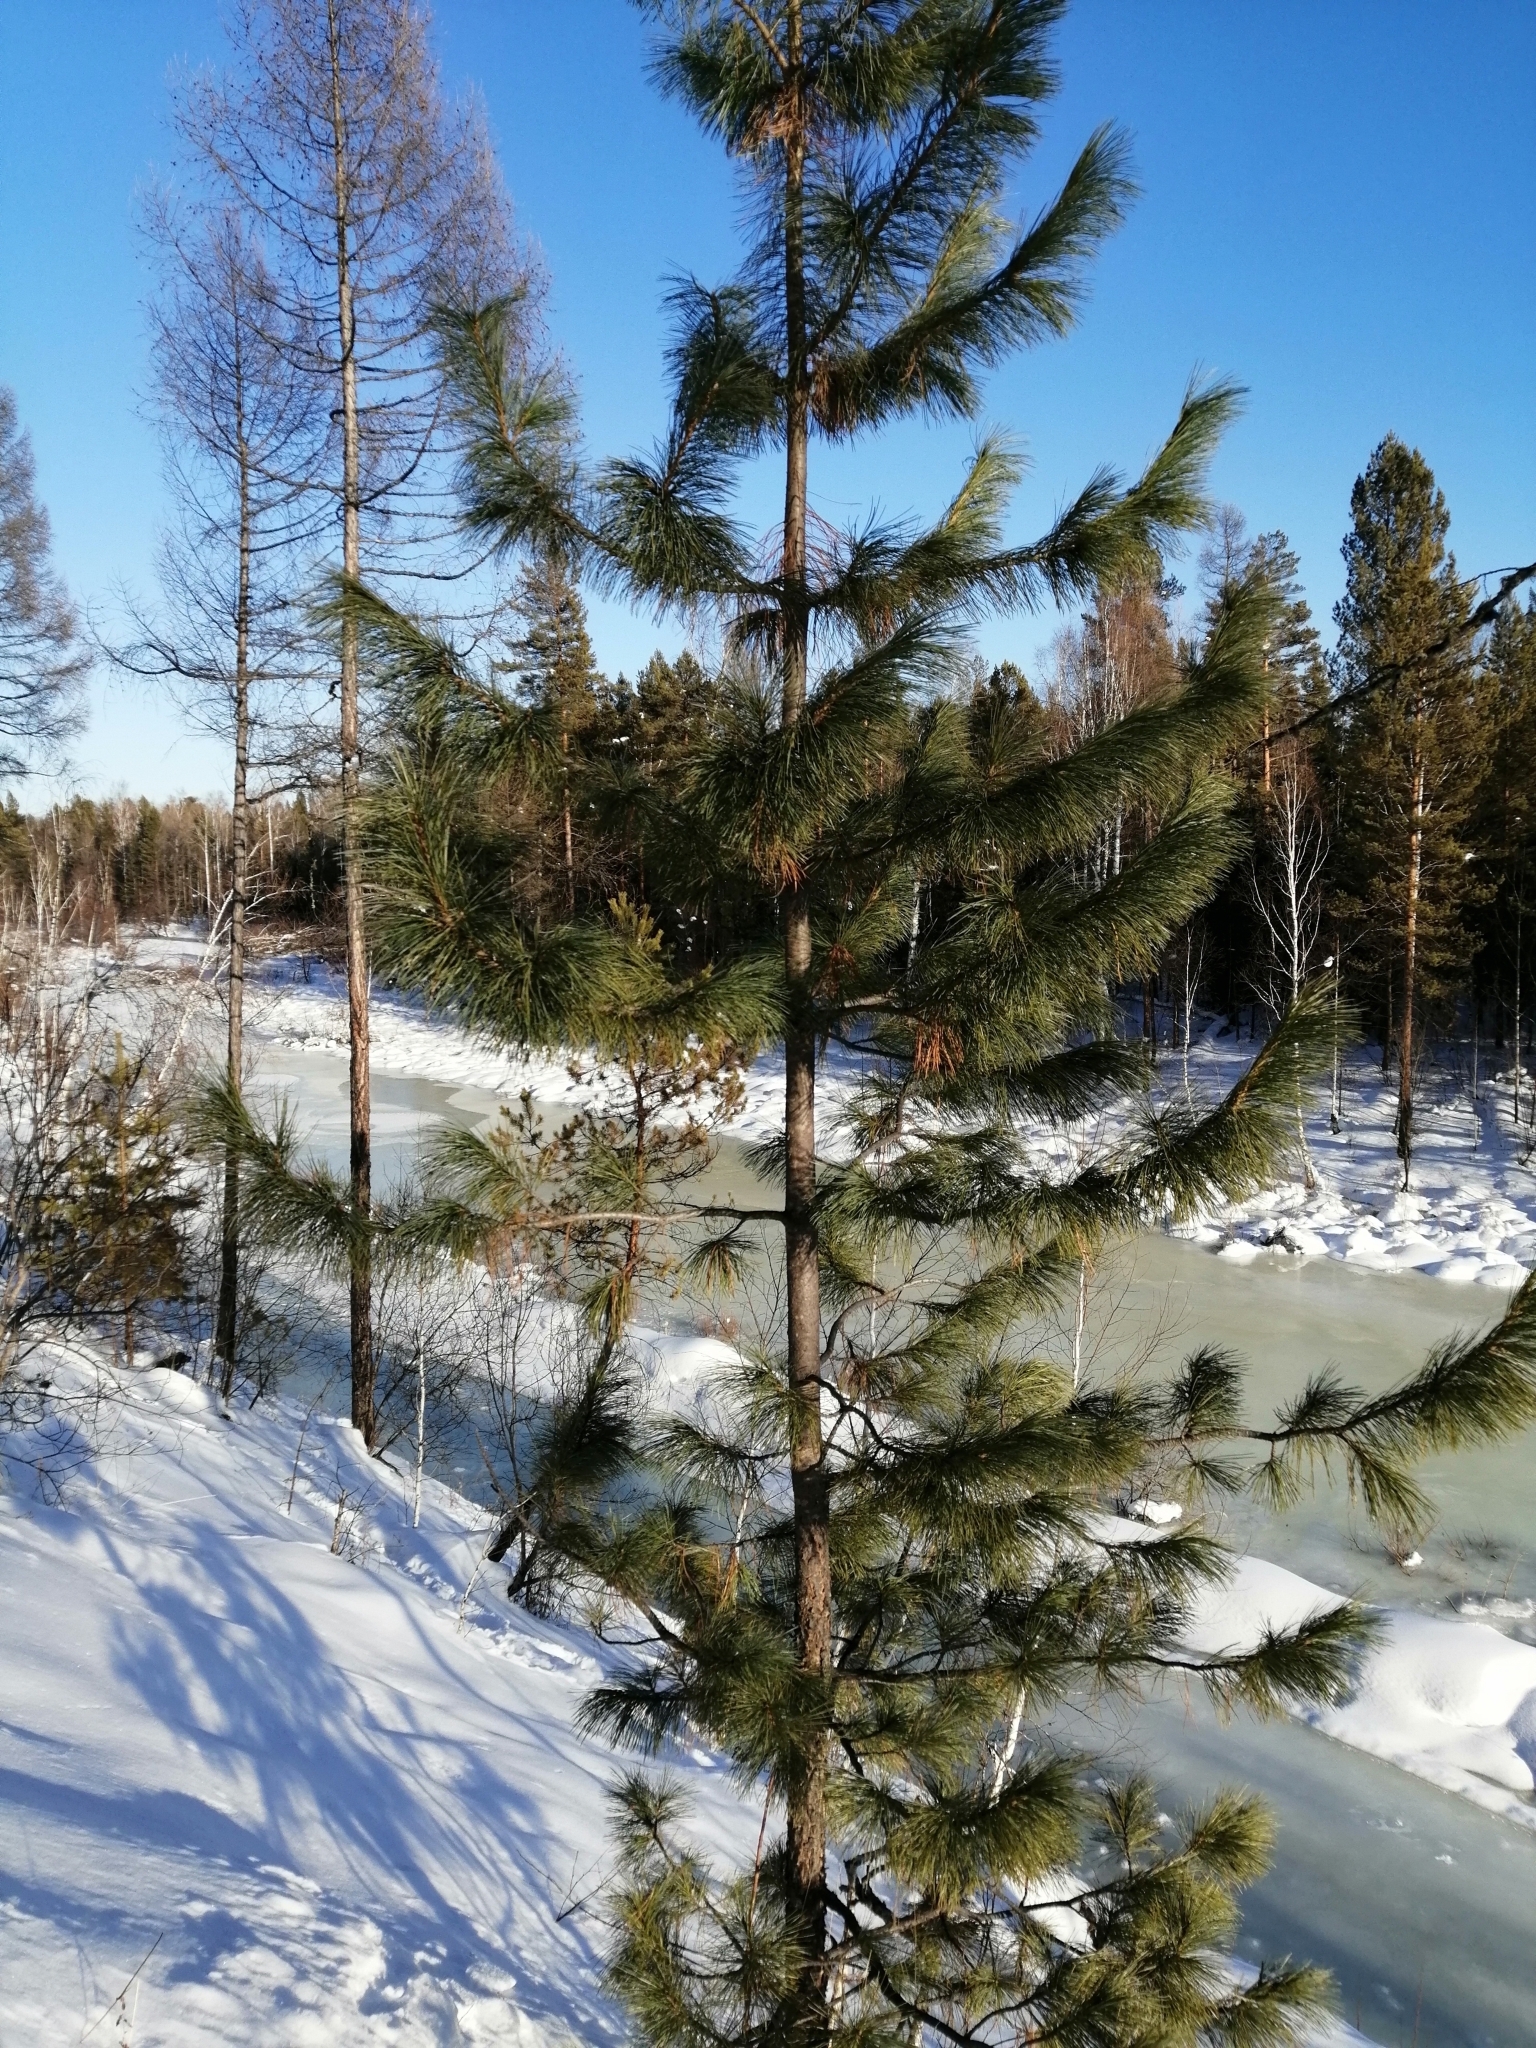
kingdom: Plantae
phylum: Tracheophyta
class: Pinopsida
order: Pinales
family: Pinaceae
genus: Pinus
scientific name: Pinus sibirica
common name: Siberian pine
